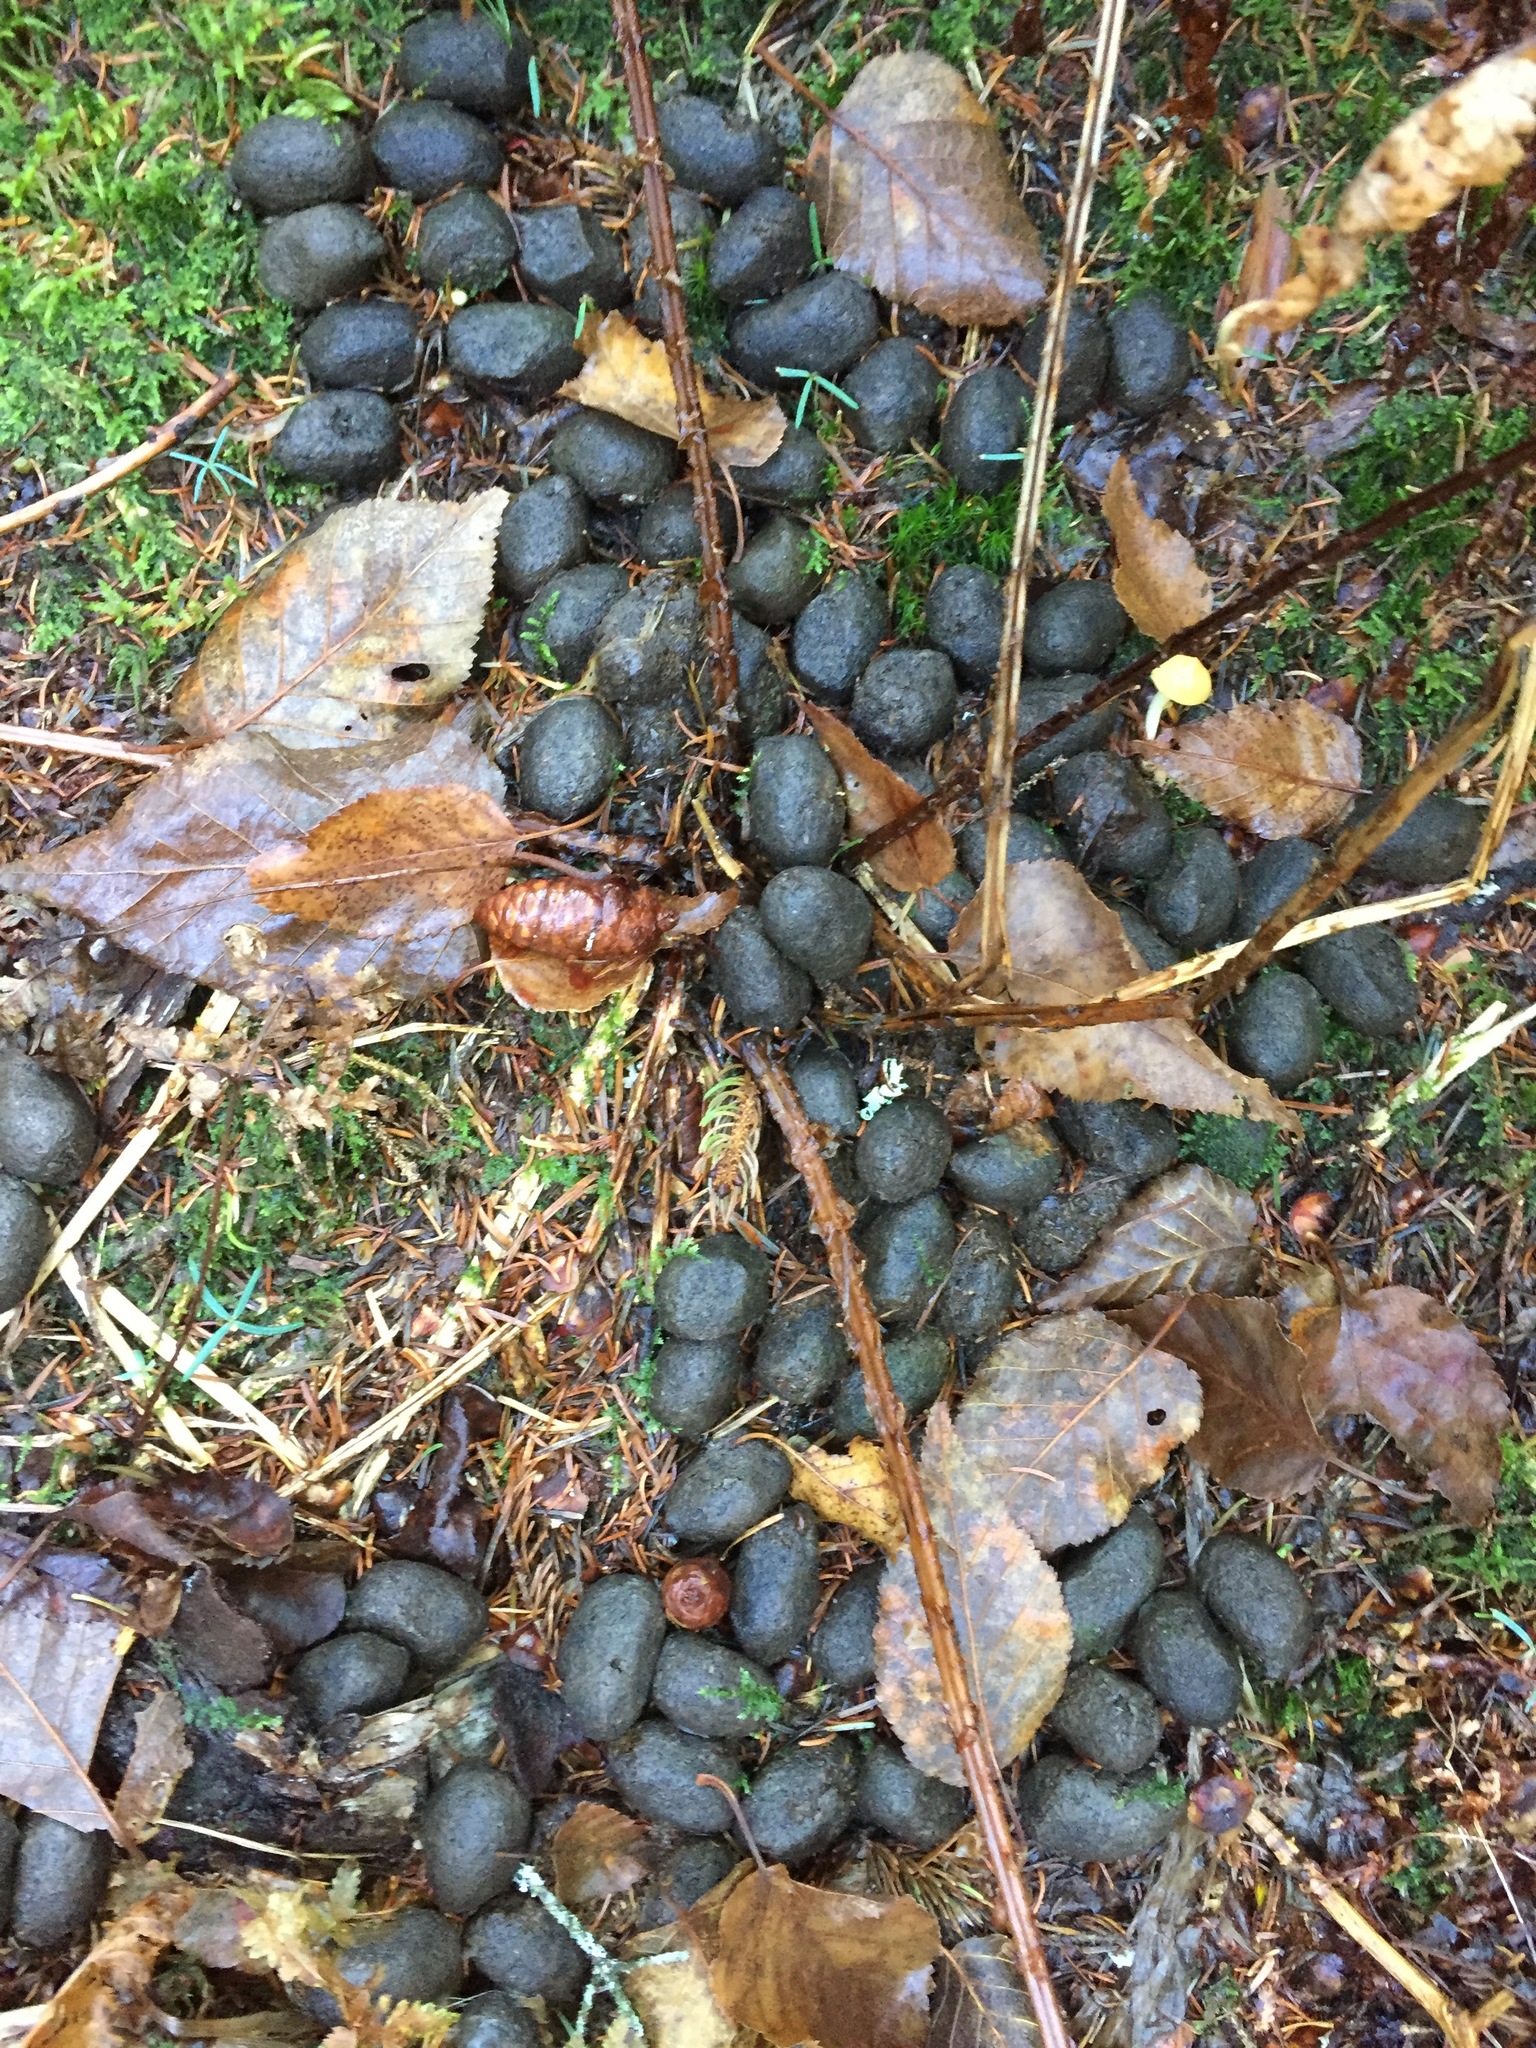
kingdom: Animalia
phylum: Chordata
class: Mammalia
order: Artiodactyla
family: Cervidae
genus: Alces
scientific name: Alces alces
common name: Moose
